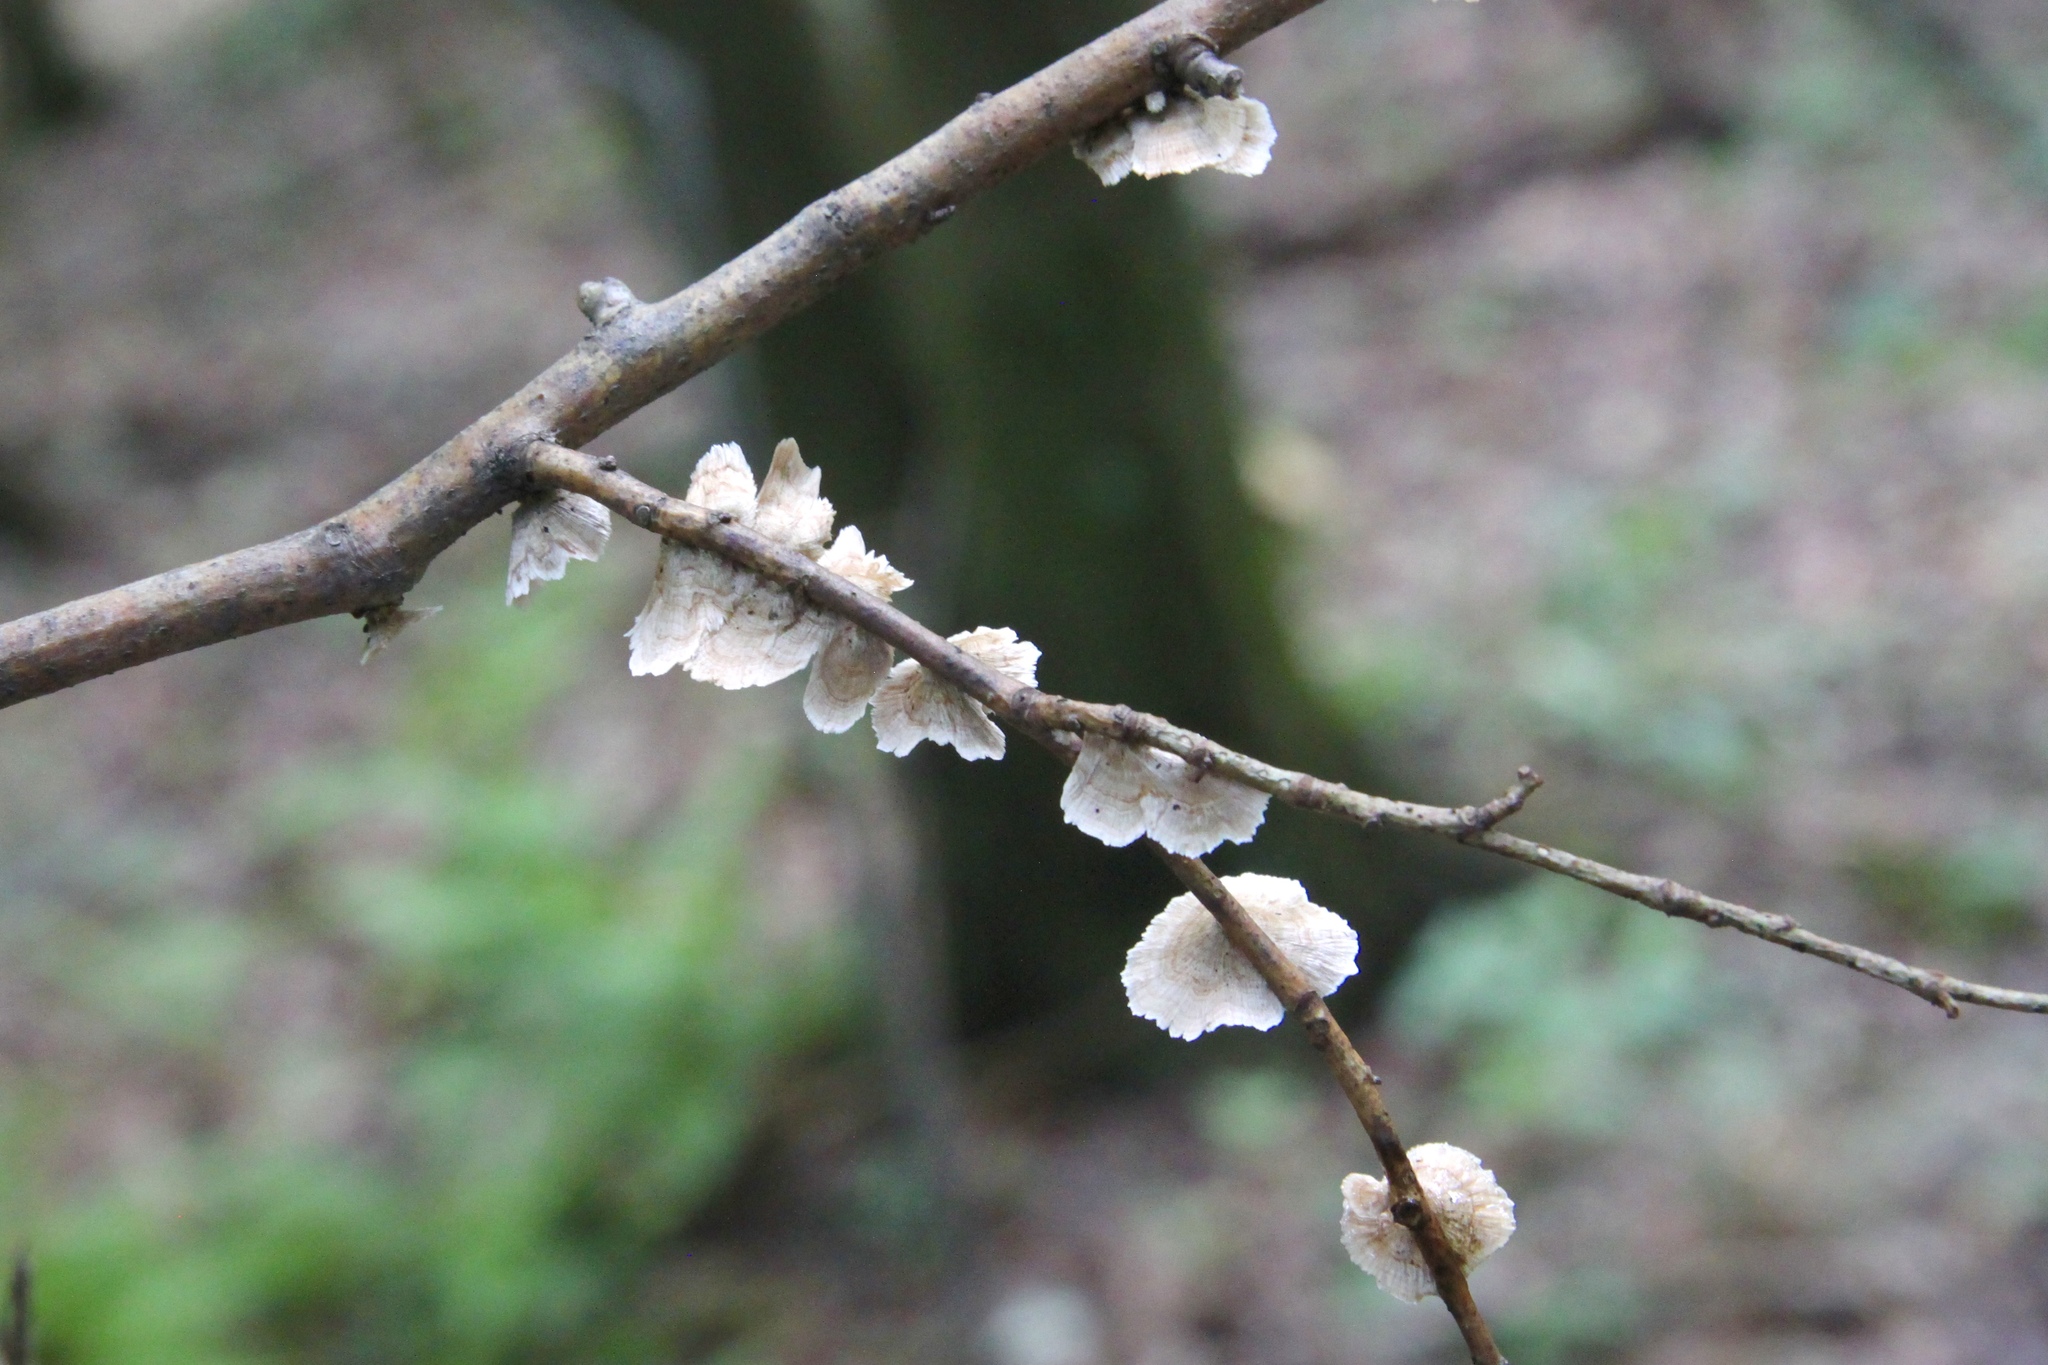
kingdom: Fungi
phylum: Basidiomycota
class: Agaricomycetes
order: Russulales
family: Stereaceae
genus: Stereum
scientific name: Stereum striatum
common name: Silky parchment
